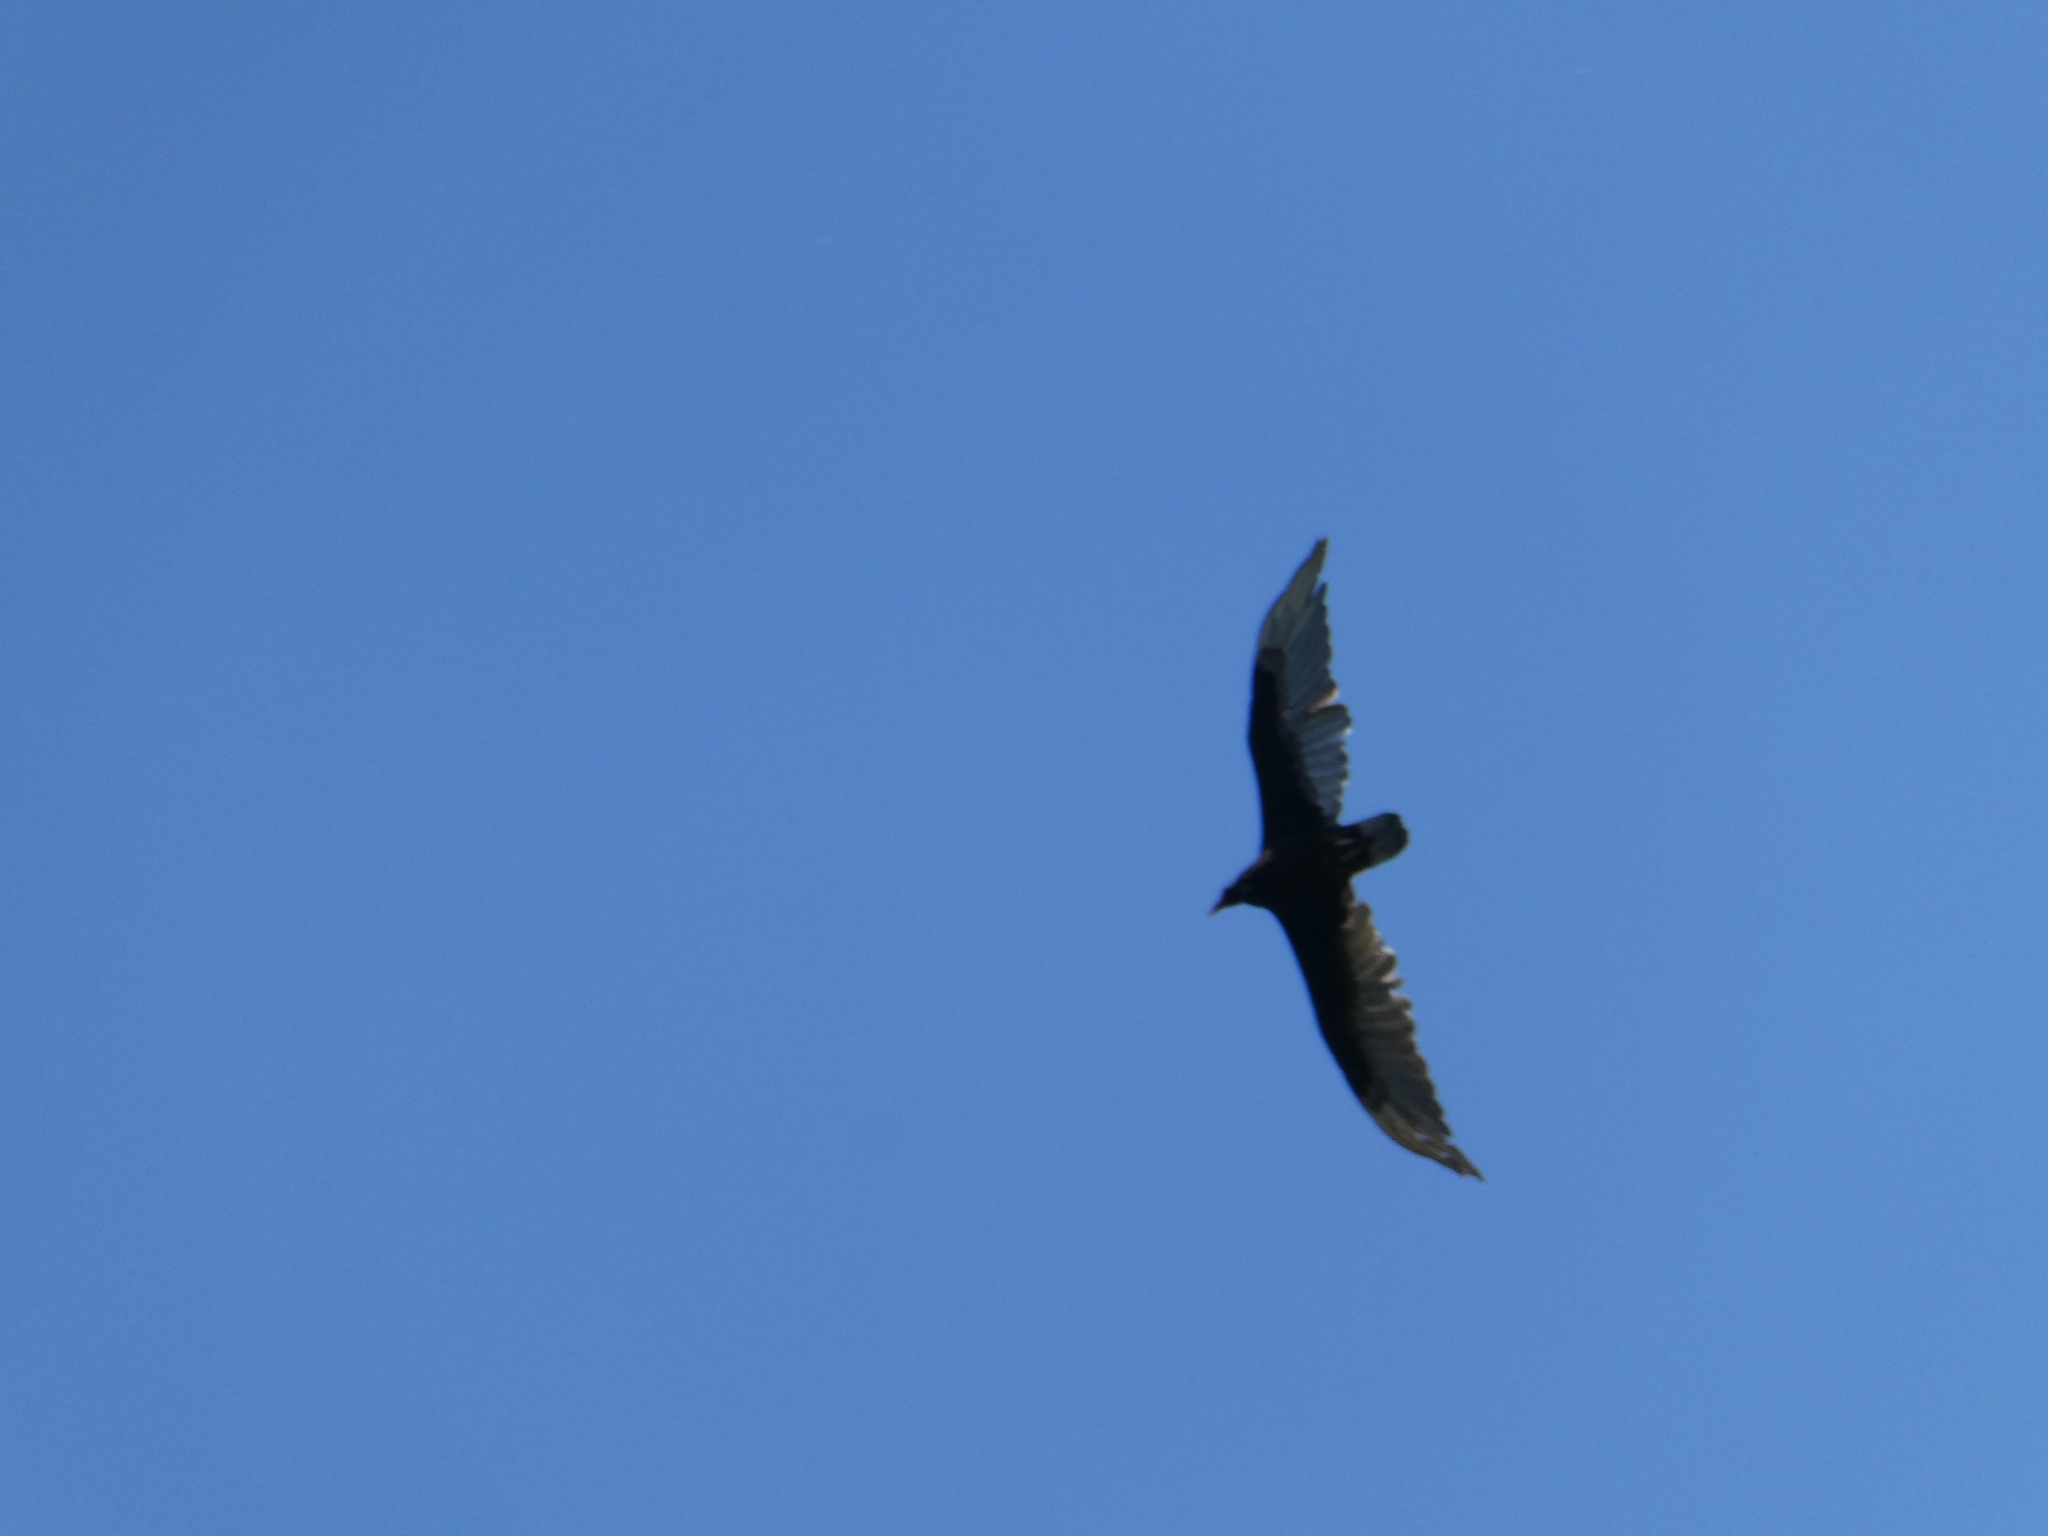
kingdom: Animalia
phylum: Chordata
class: Aves
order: Accipitriformes
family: Cathartidae
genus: Cathartes
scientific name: Cathartes aura
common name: Turkey vulture
